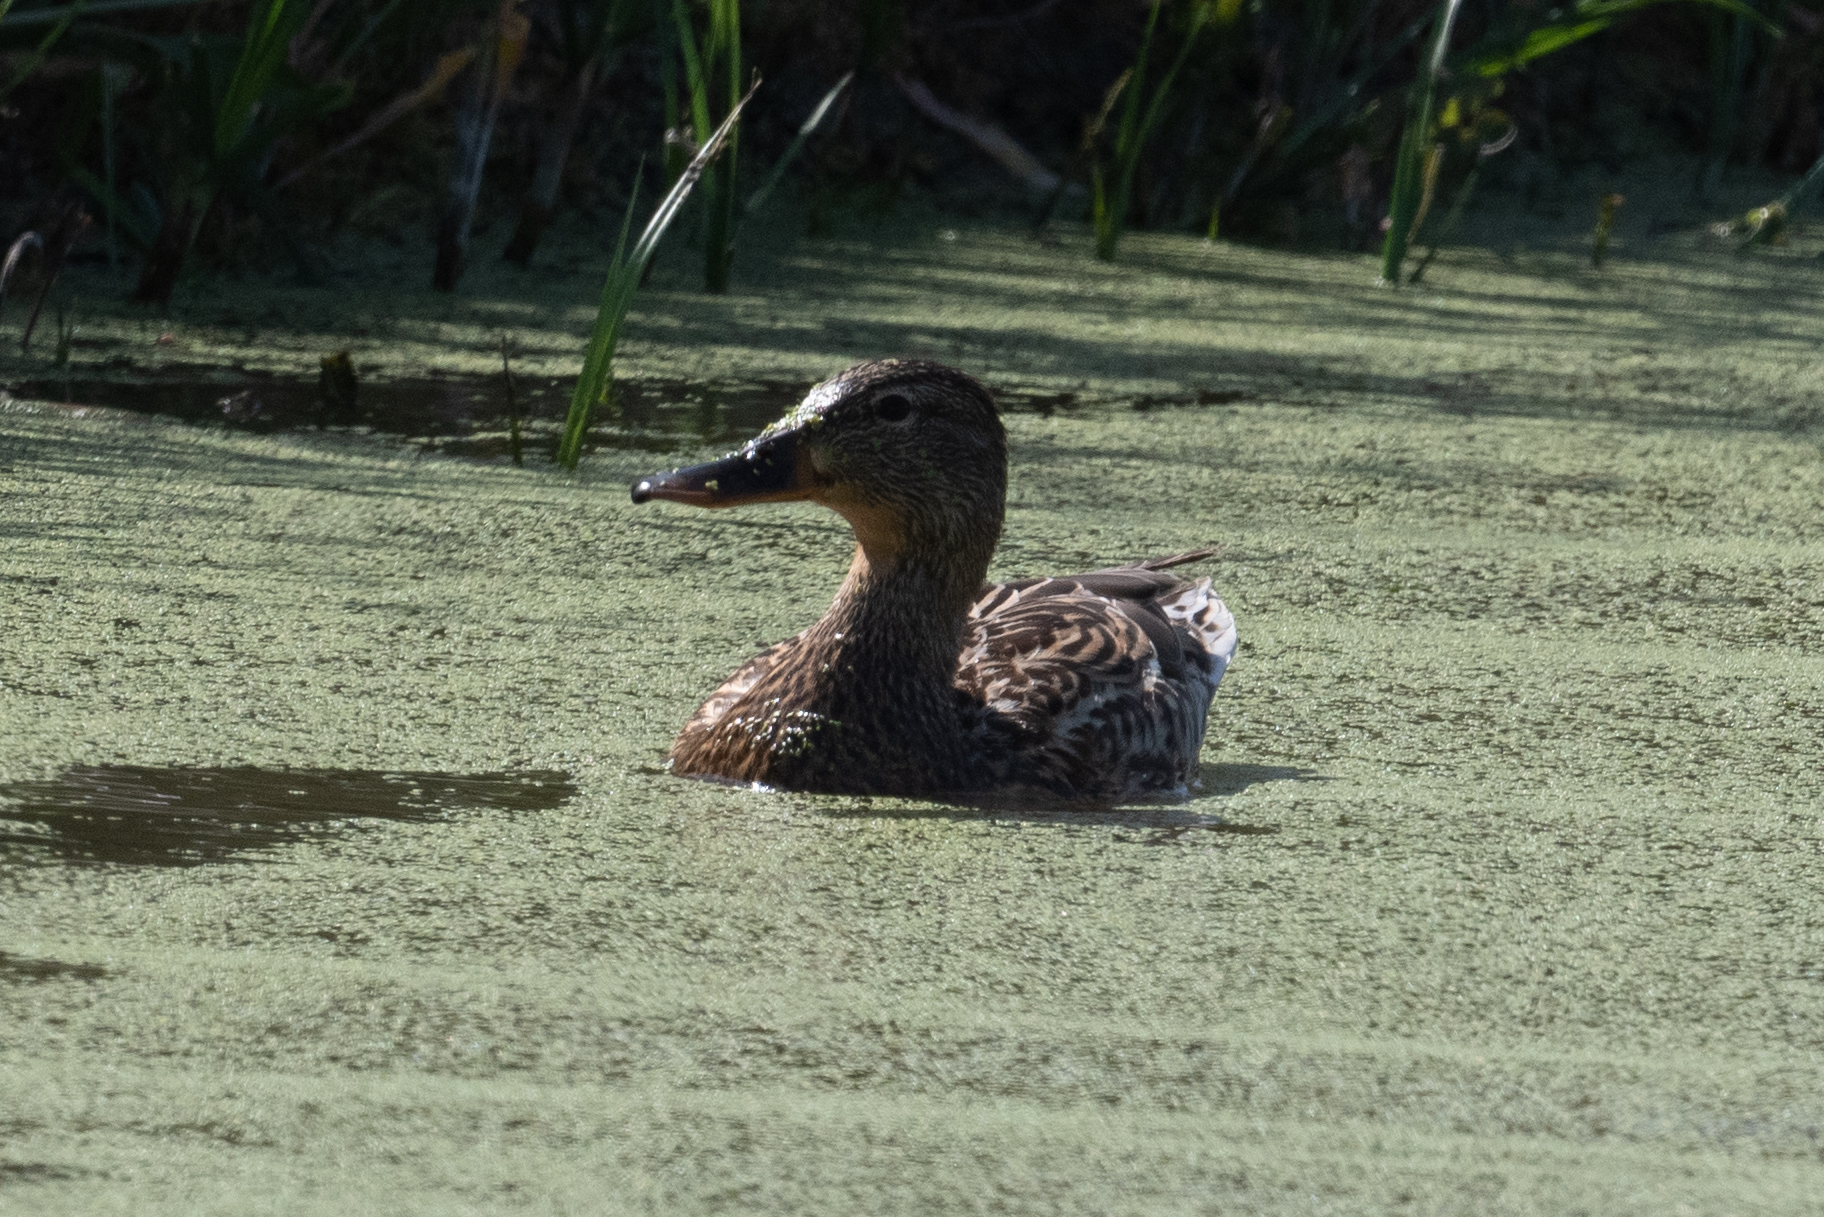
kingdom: Animalia
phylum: Chordata
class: Aves
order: Anseriformes
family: Anatidae
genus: Anas
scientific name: Anas platyrhynchos
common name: Mallard
